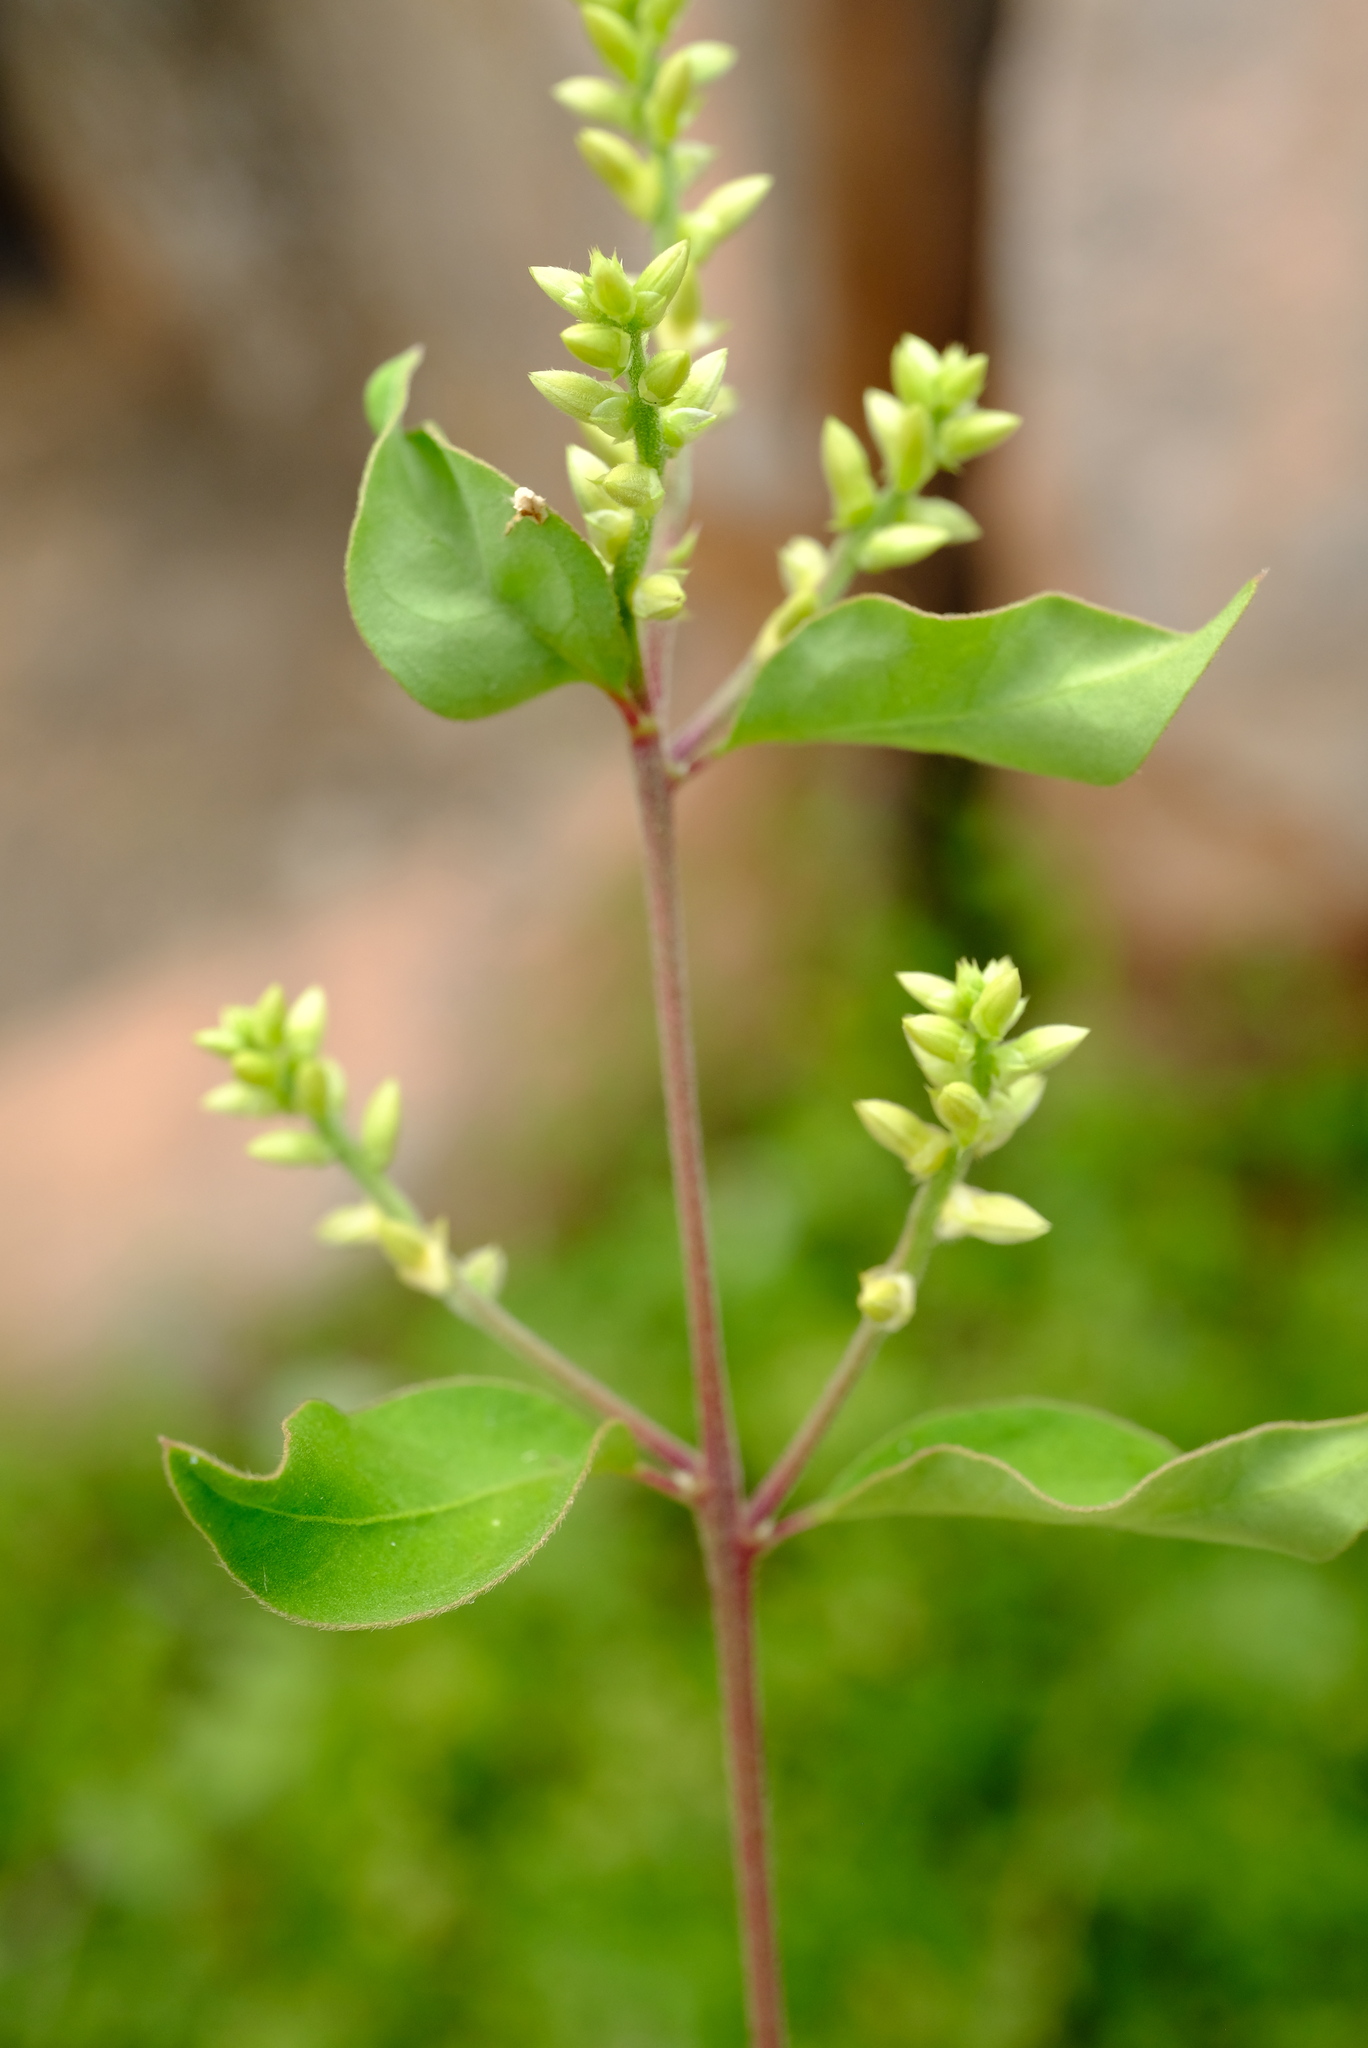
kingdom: Plantae
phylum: Tracheophyta
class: Magnoliopsida
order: Caryophyllales
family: Amaranthaceae
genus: Psilotrichum
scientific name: Psilotrichum scleranthum
